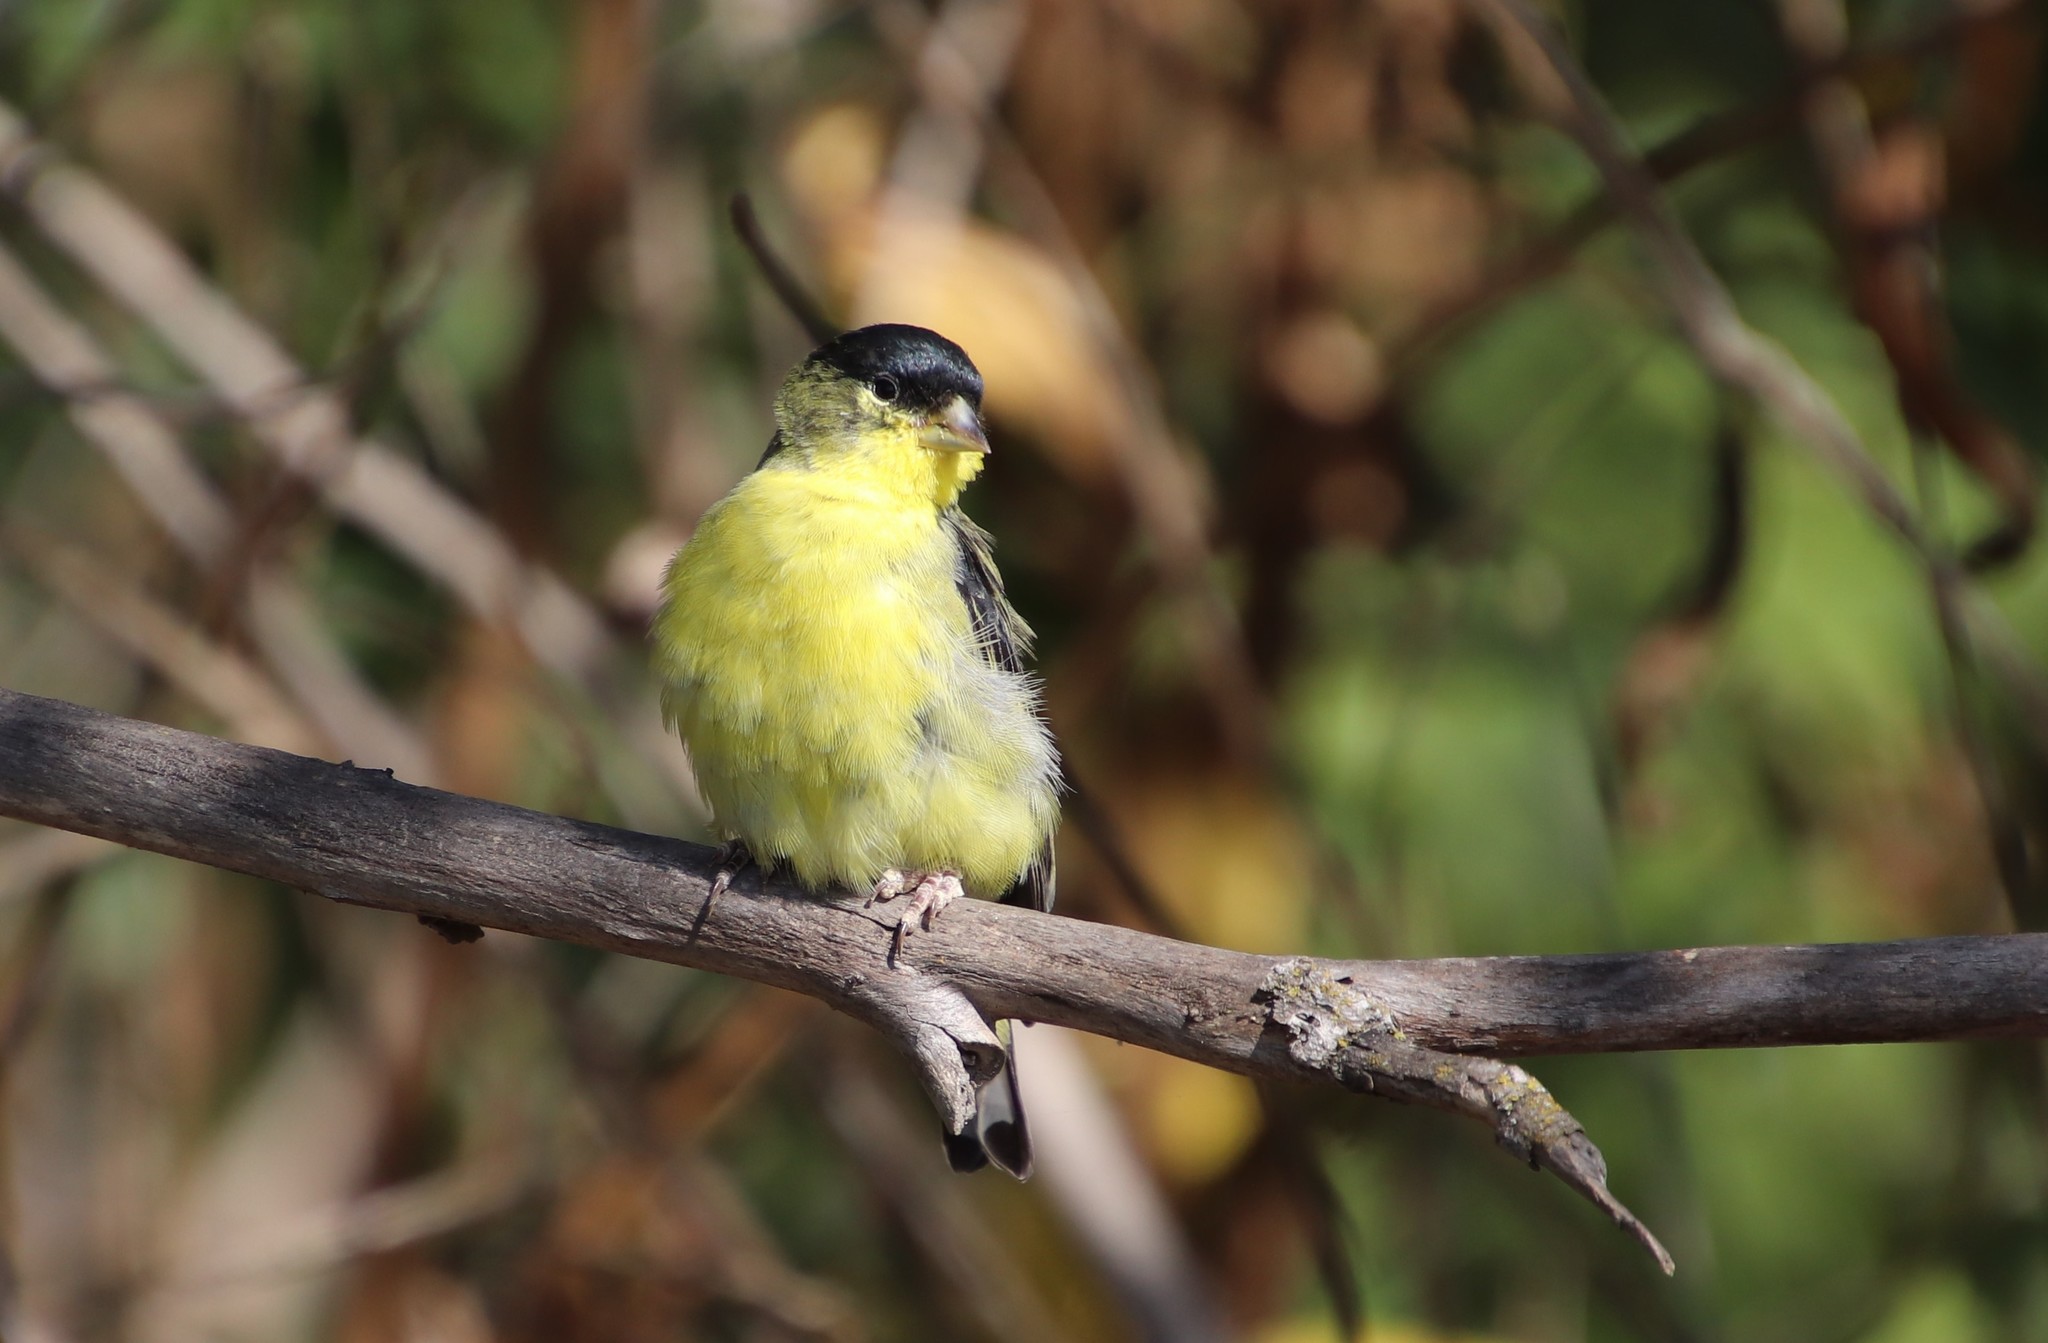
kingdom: Animalia
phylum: Chordata
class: Aves
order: Passeriformes
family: Fringillidae
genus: Spinus
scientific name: Spinus psaltria
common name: Lesser goldfinch
